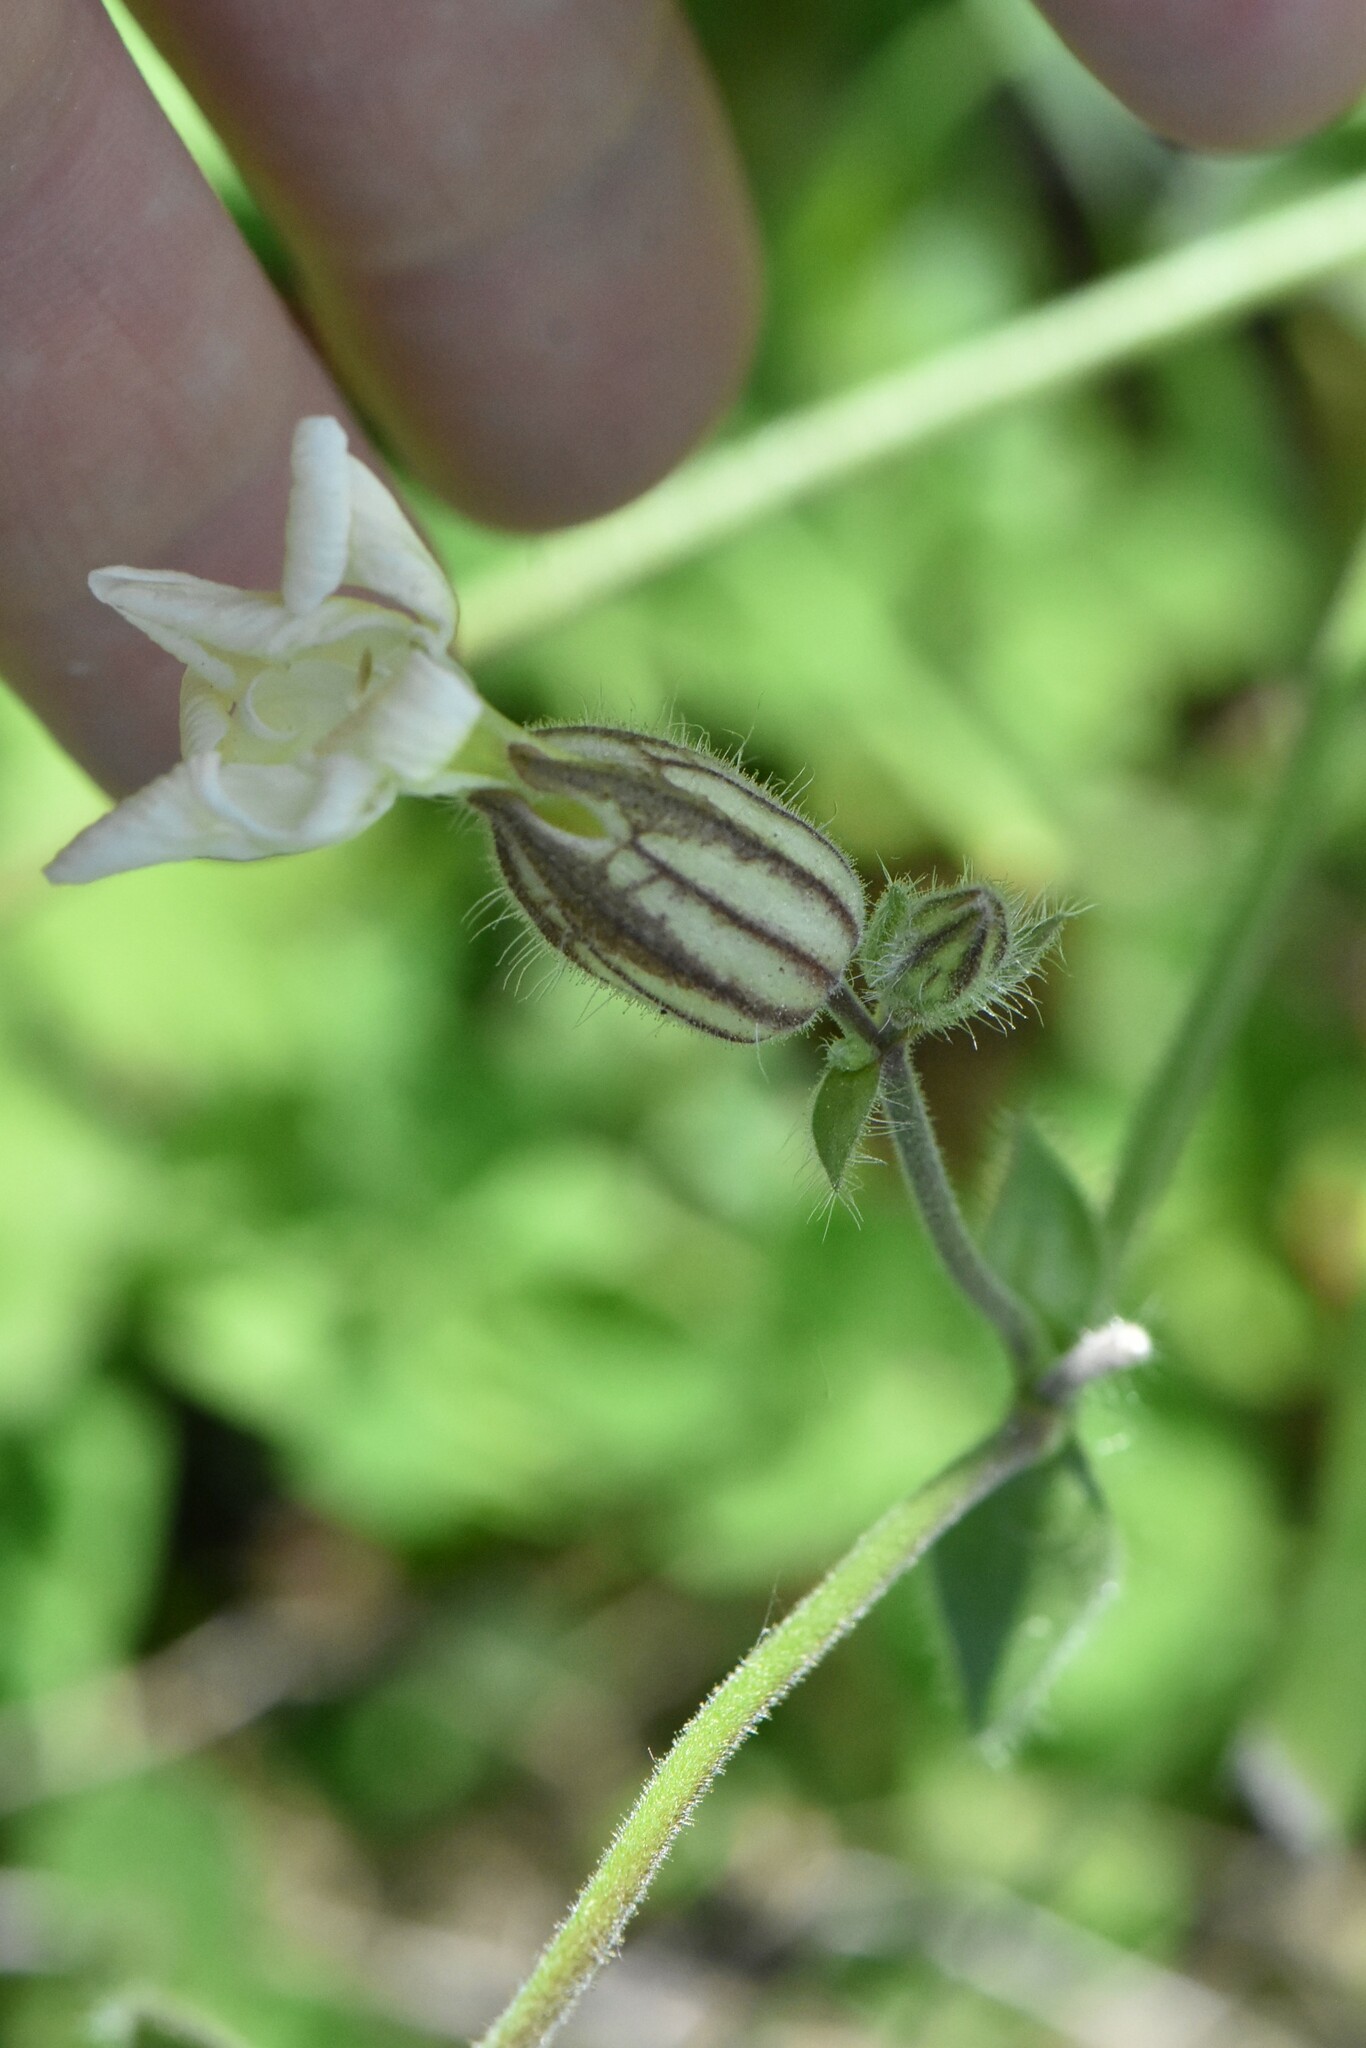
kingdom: Plantae
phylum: Tracheophyta
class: Magnoliopsida
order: Caryophyllales
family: Caryophyllaceae
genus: Silene
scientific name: Silene latifolia
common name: White campion
